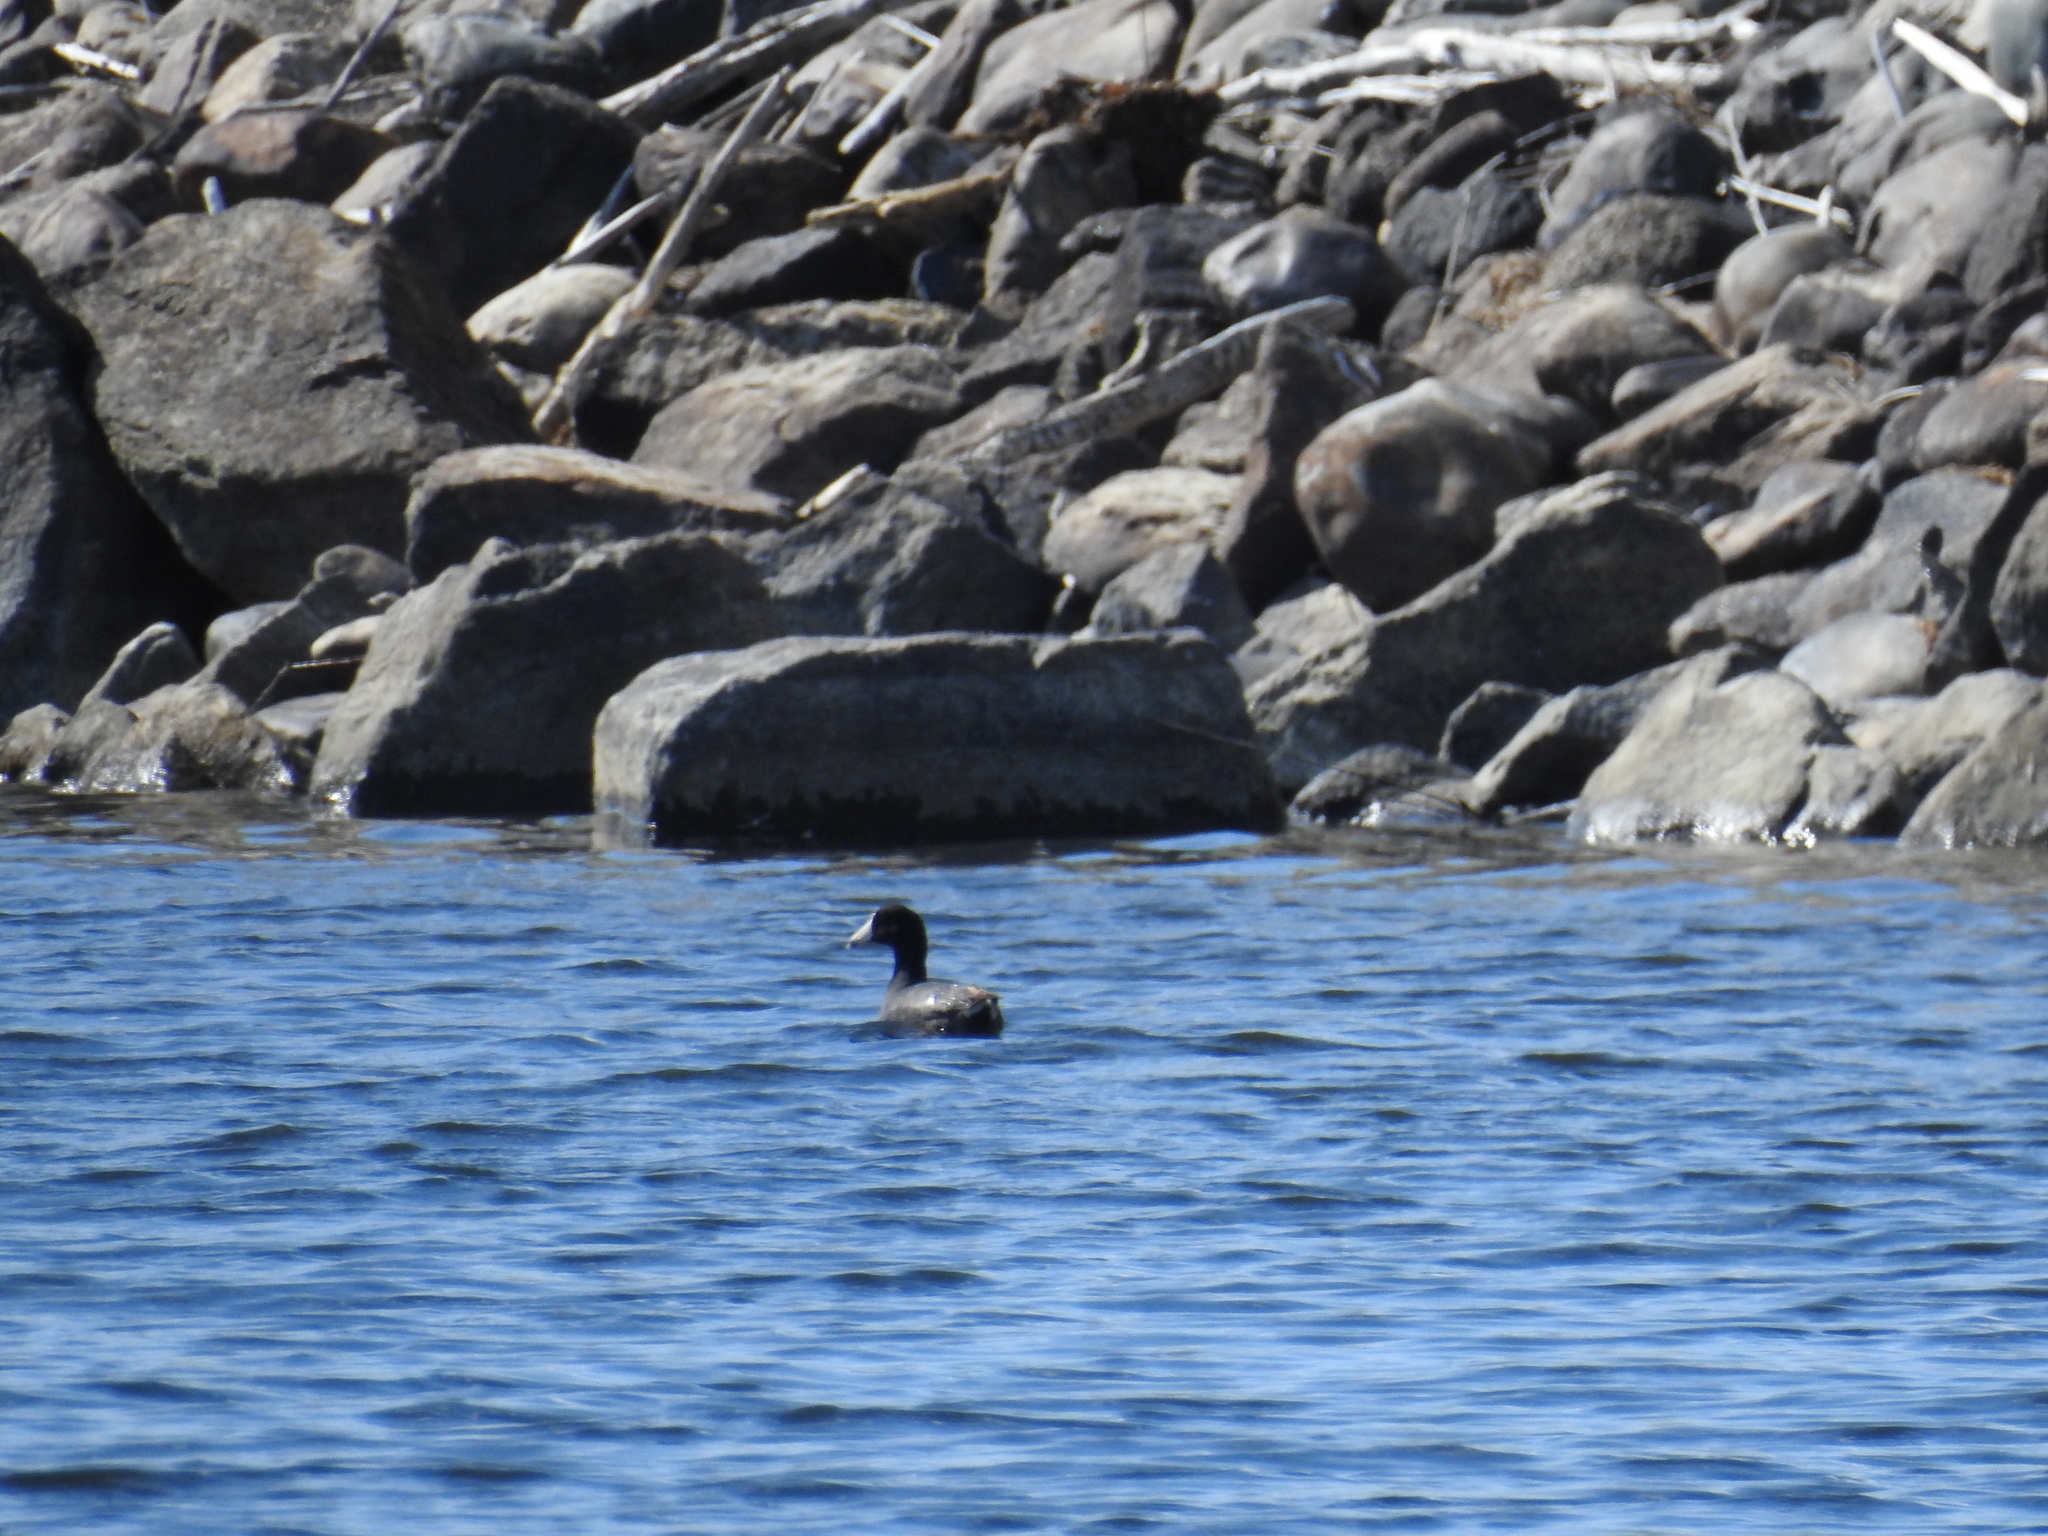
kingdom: Animalia
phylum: Chordata
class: Aves
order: Gruiformes
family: Rallidae
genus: Fulica
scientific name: Fulica americana
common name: American coot
